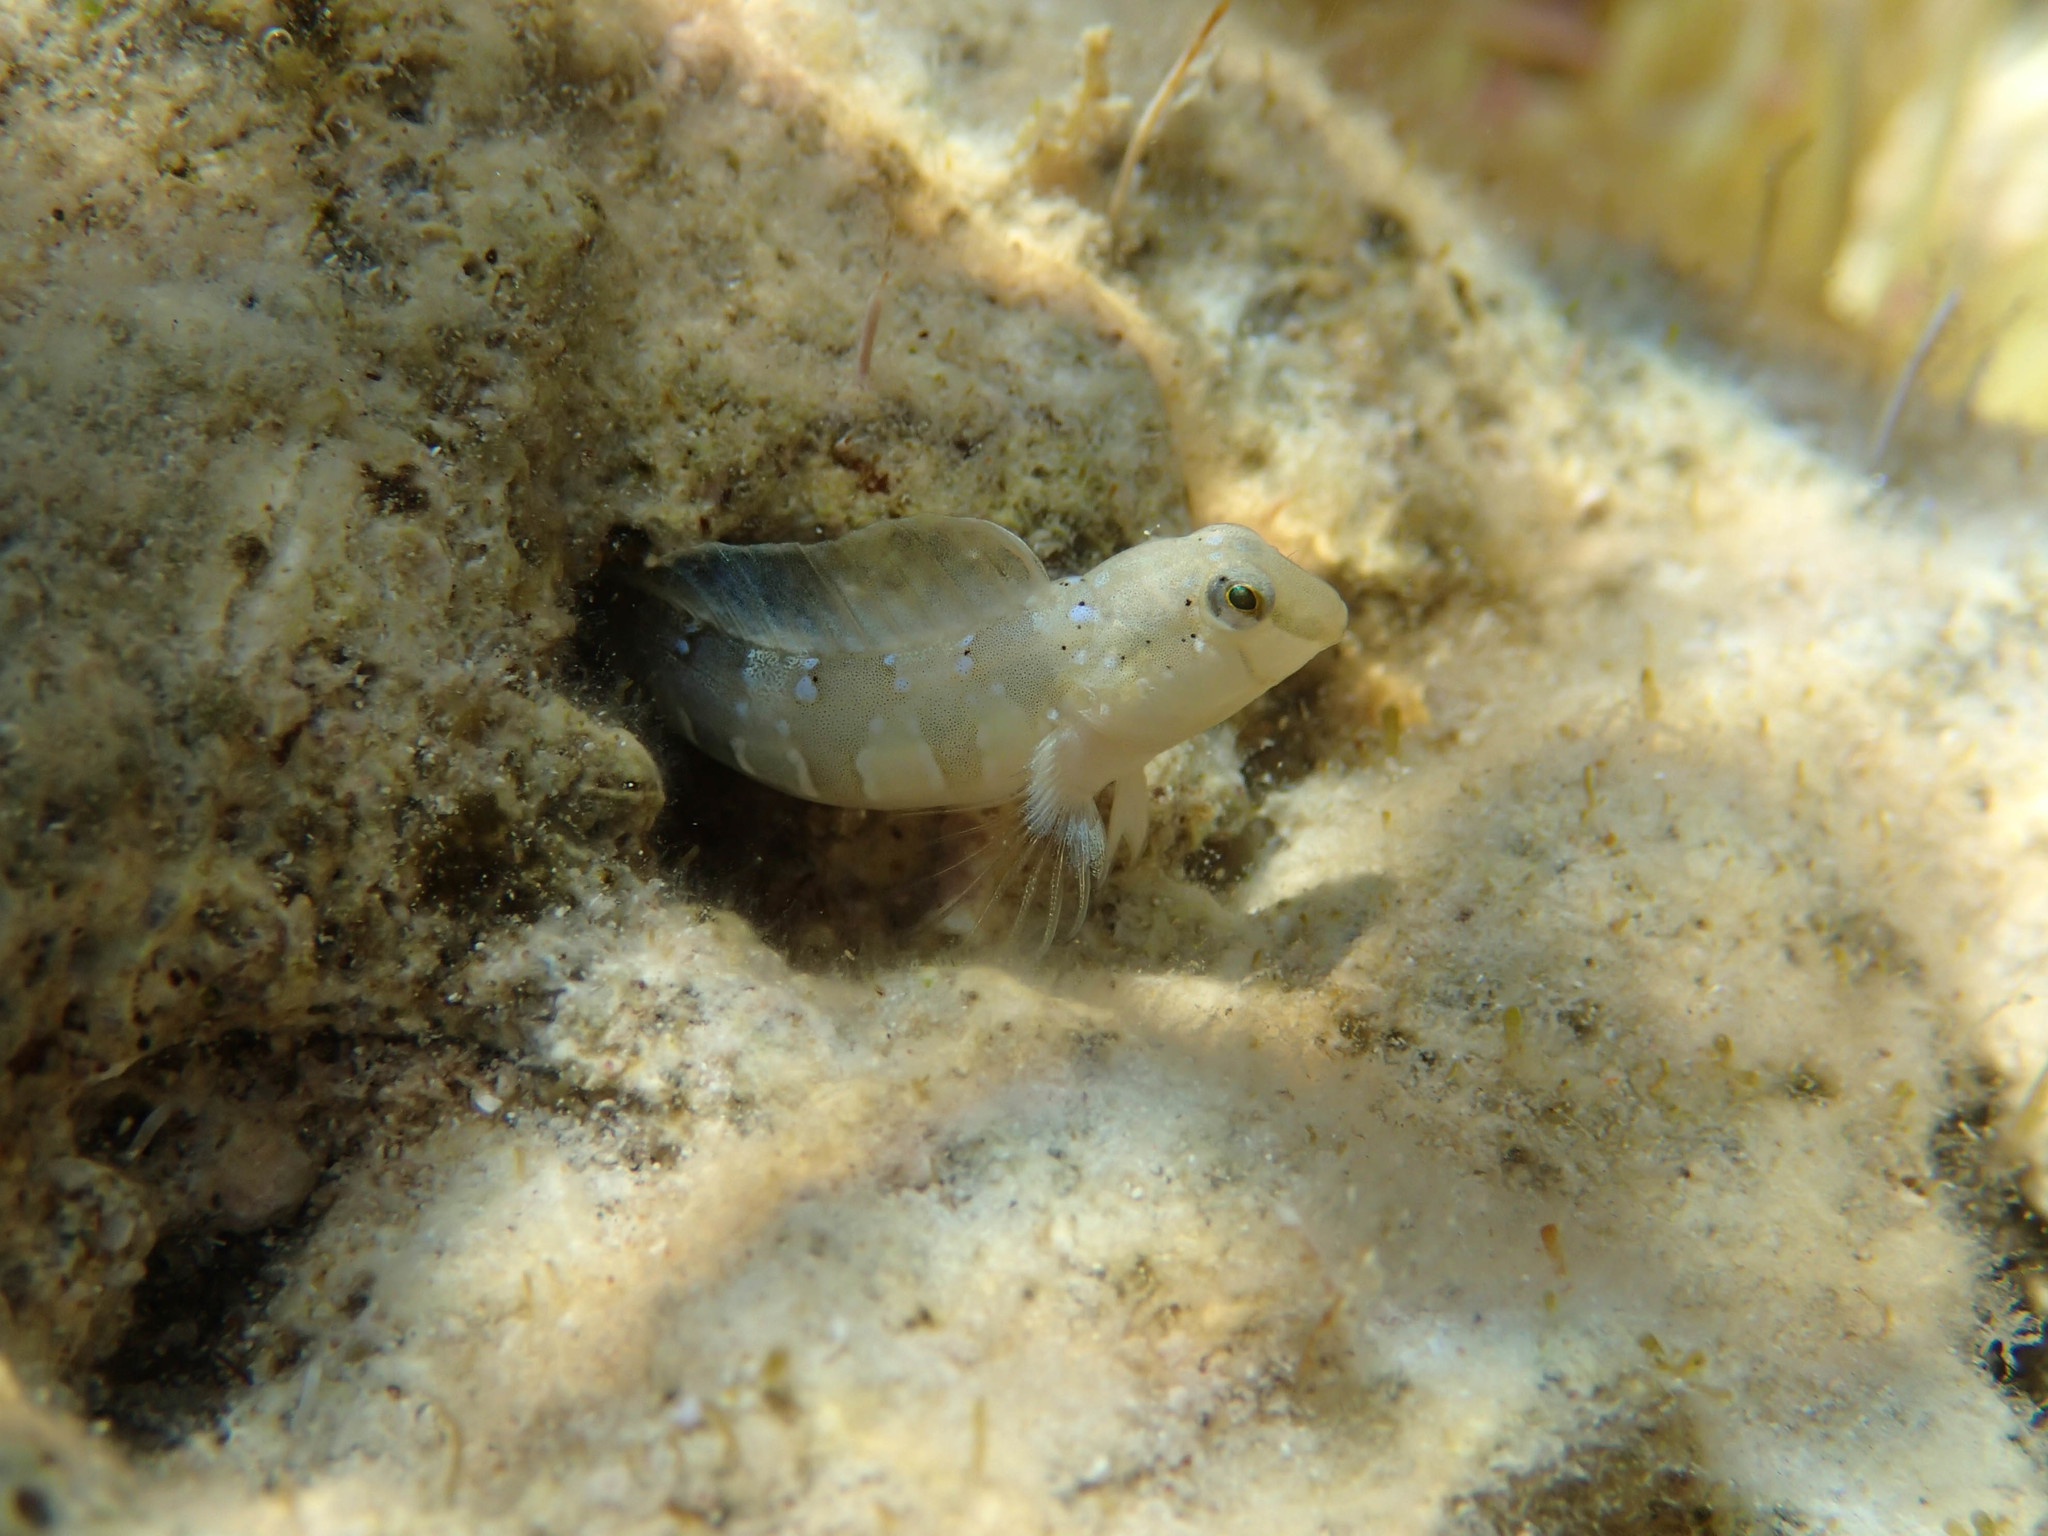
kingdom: Animalia
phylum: Chordata
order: Perciformes
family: Blenniidae
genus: Microlipophrys
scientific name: Microlipophrys dalmatinus
